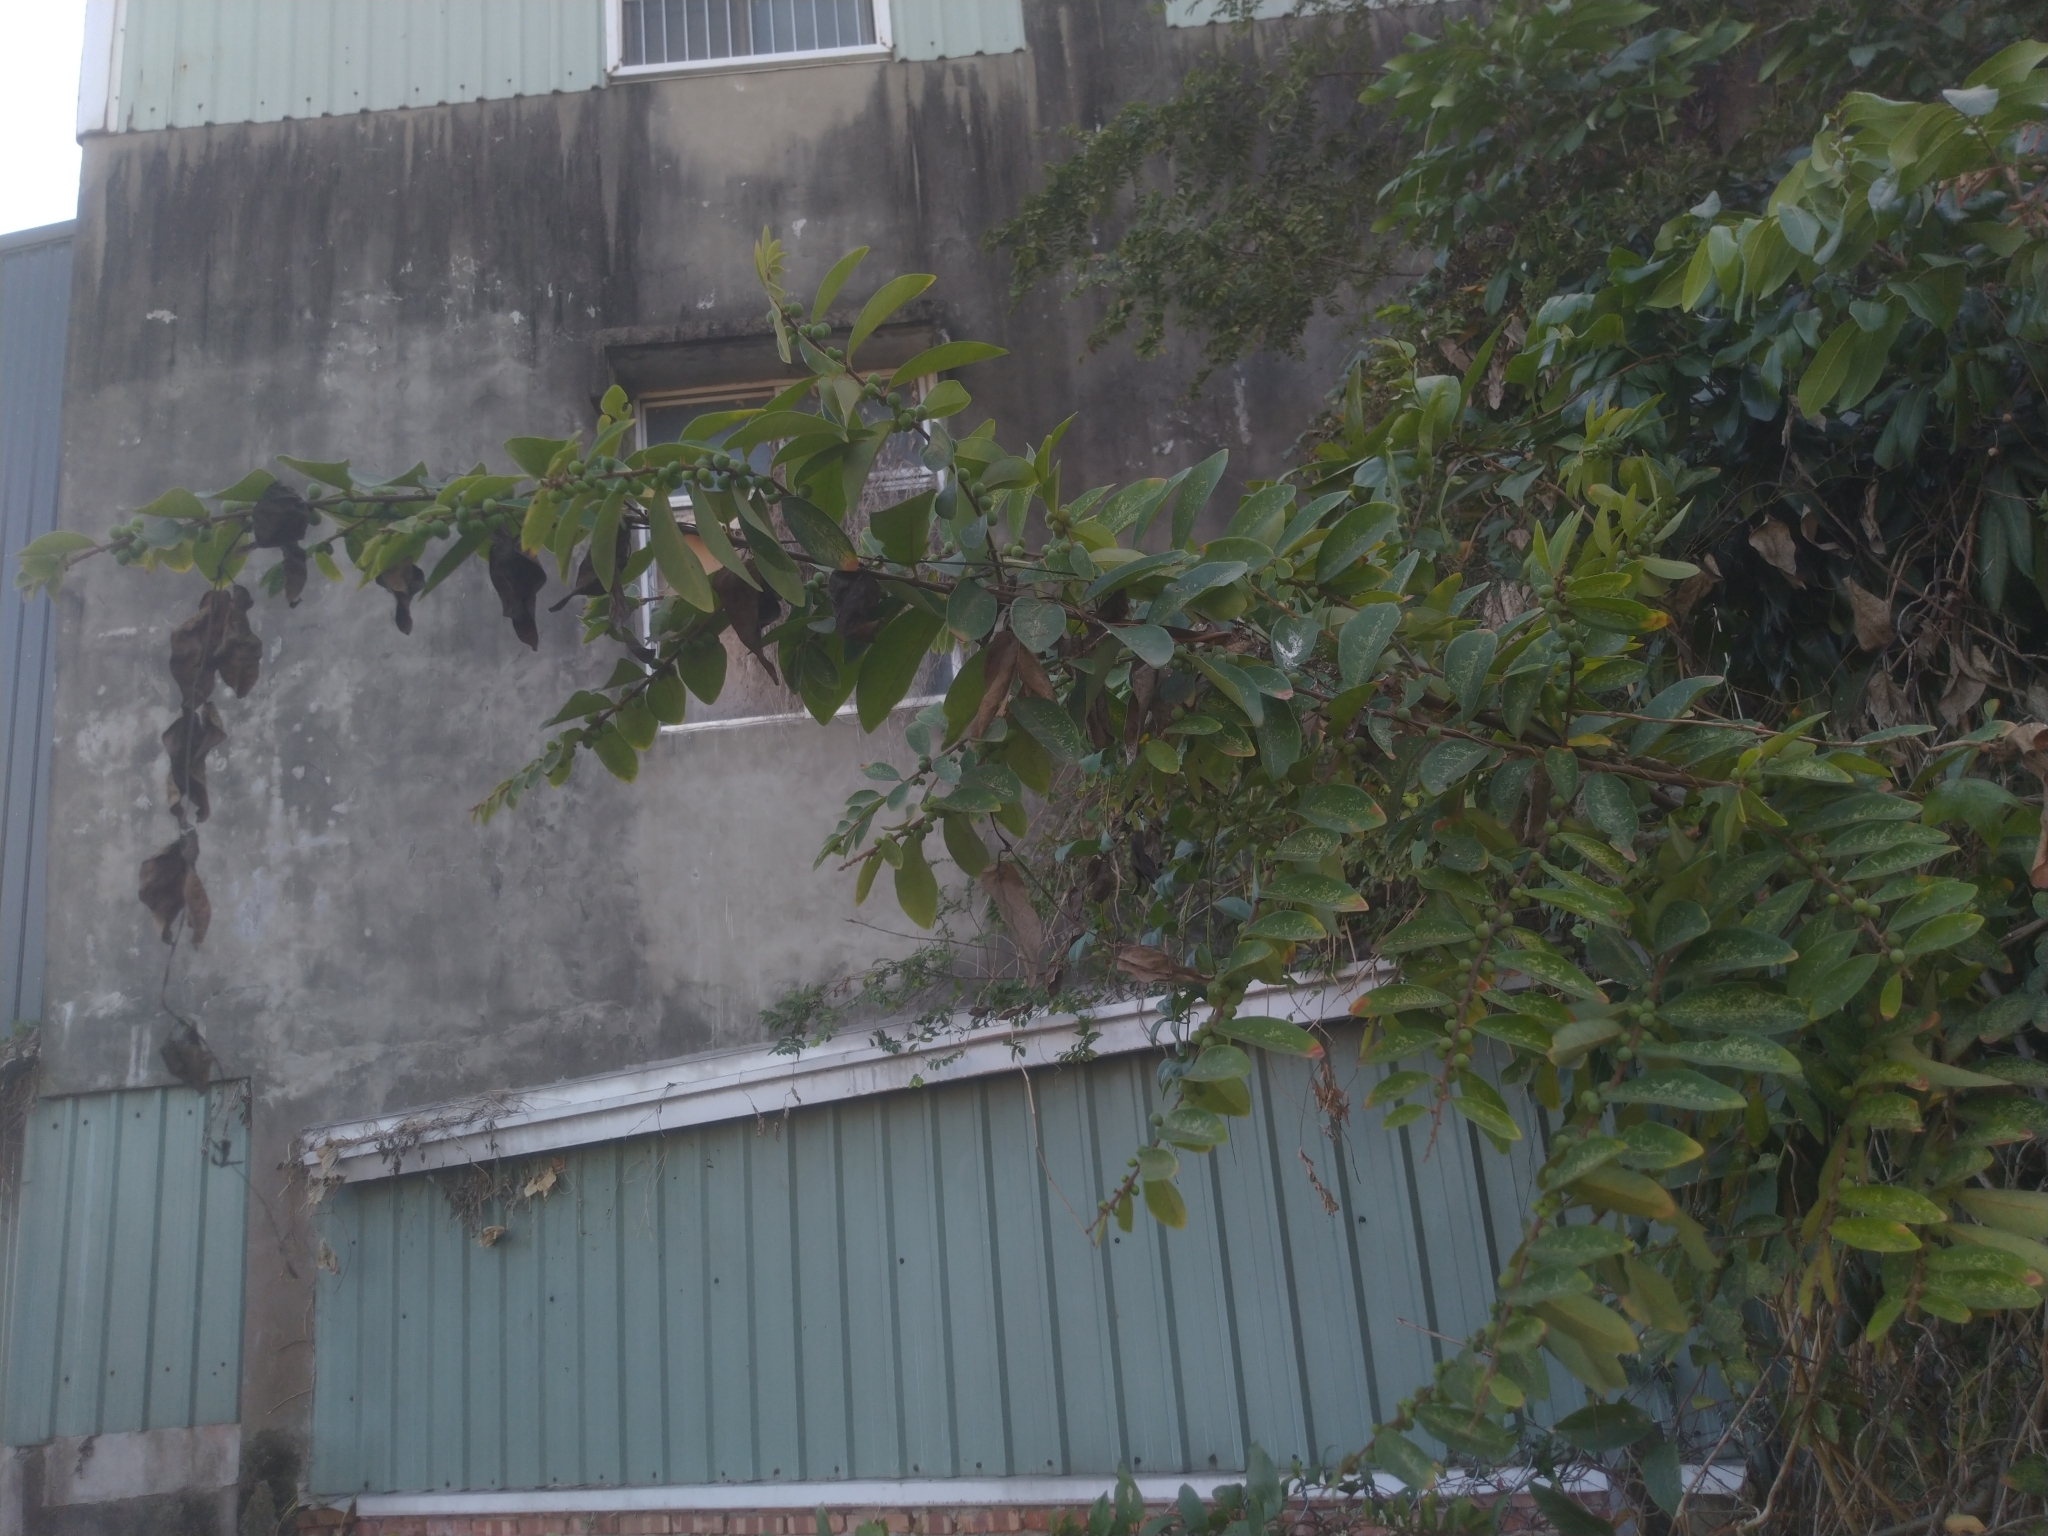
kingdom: Plantae
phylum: Tracheophyta
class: Magnoliopsida
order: Malpighiales
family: Phyllanthaceae
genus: Bridelia
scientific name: Bridelia tomentosa
